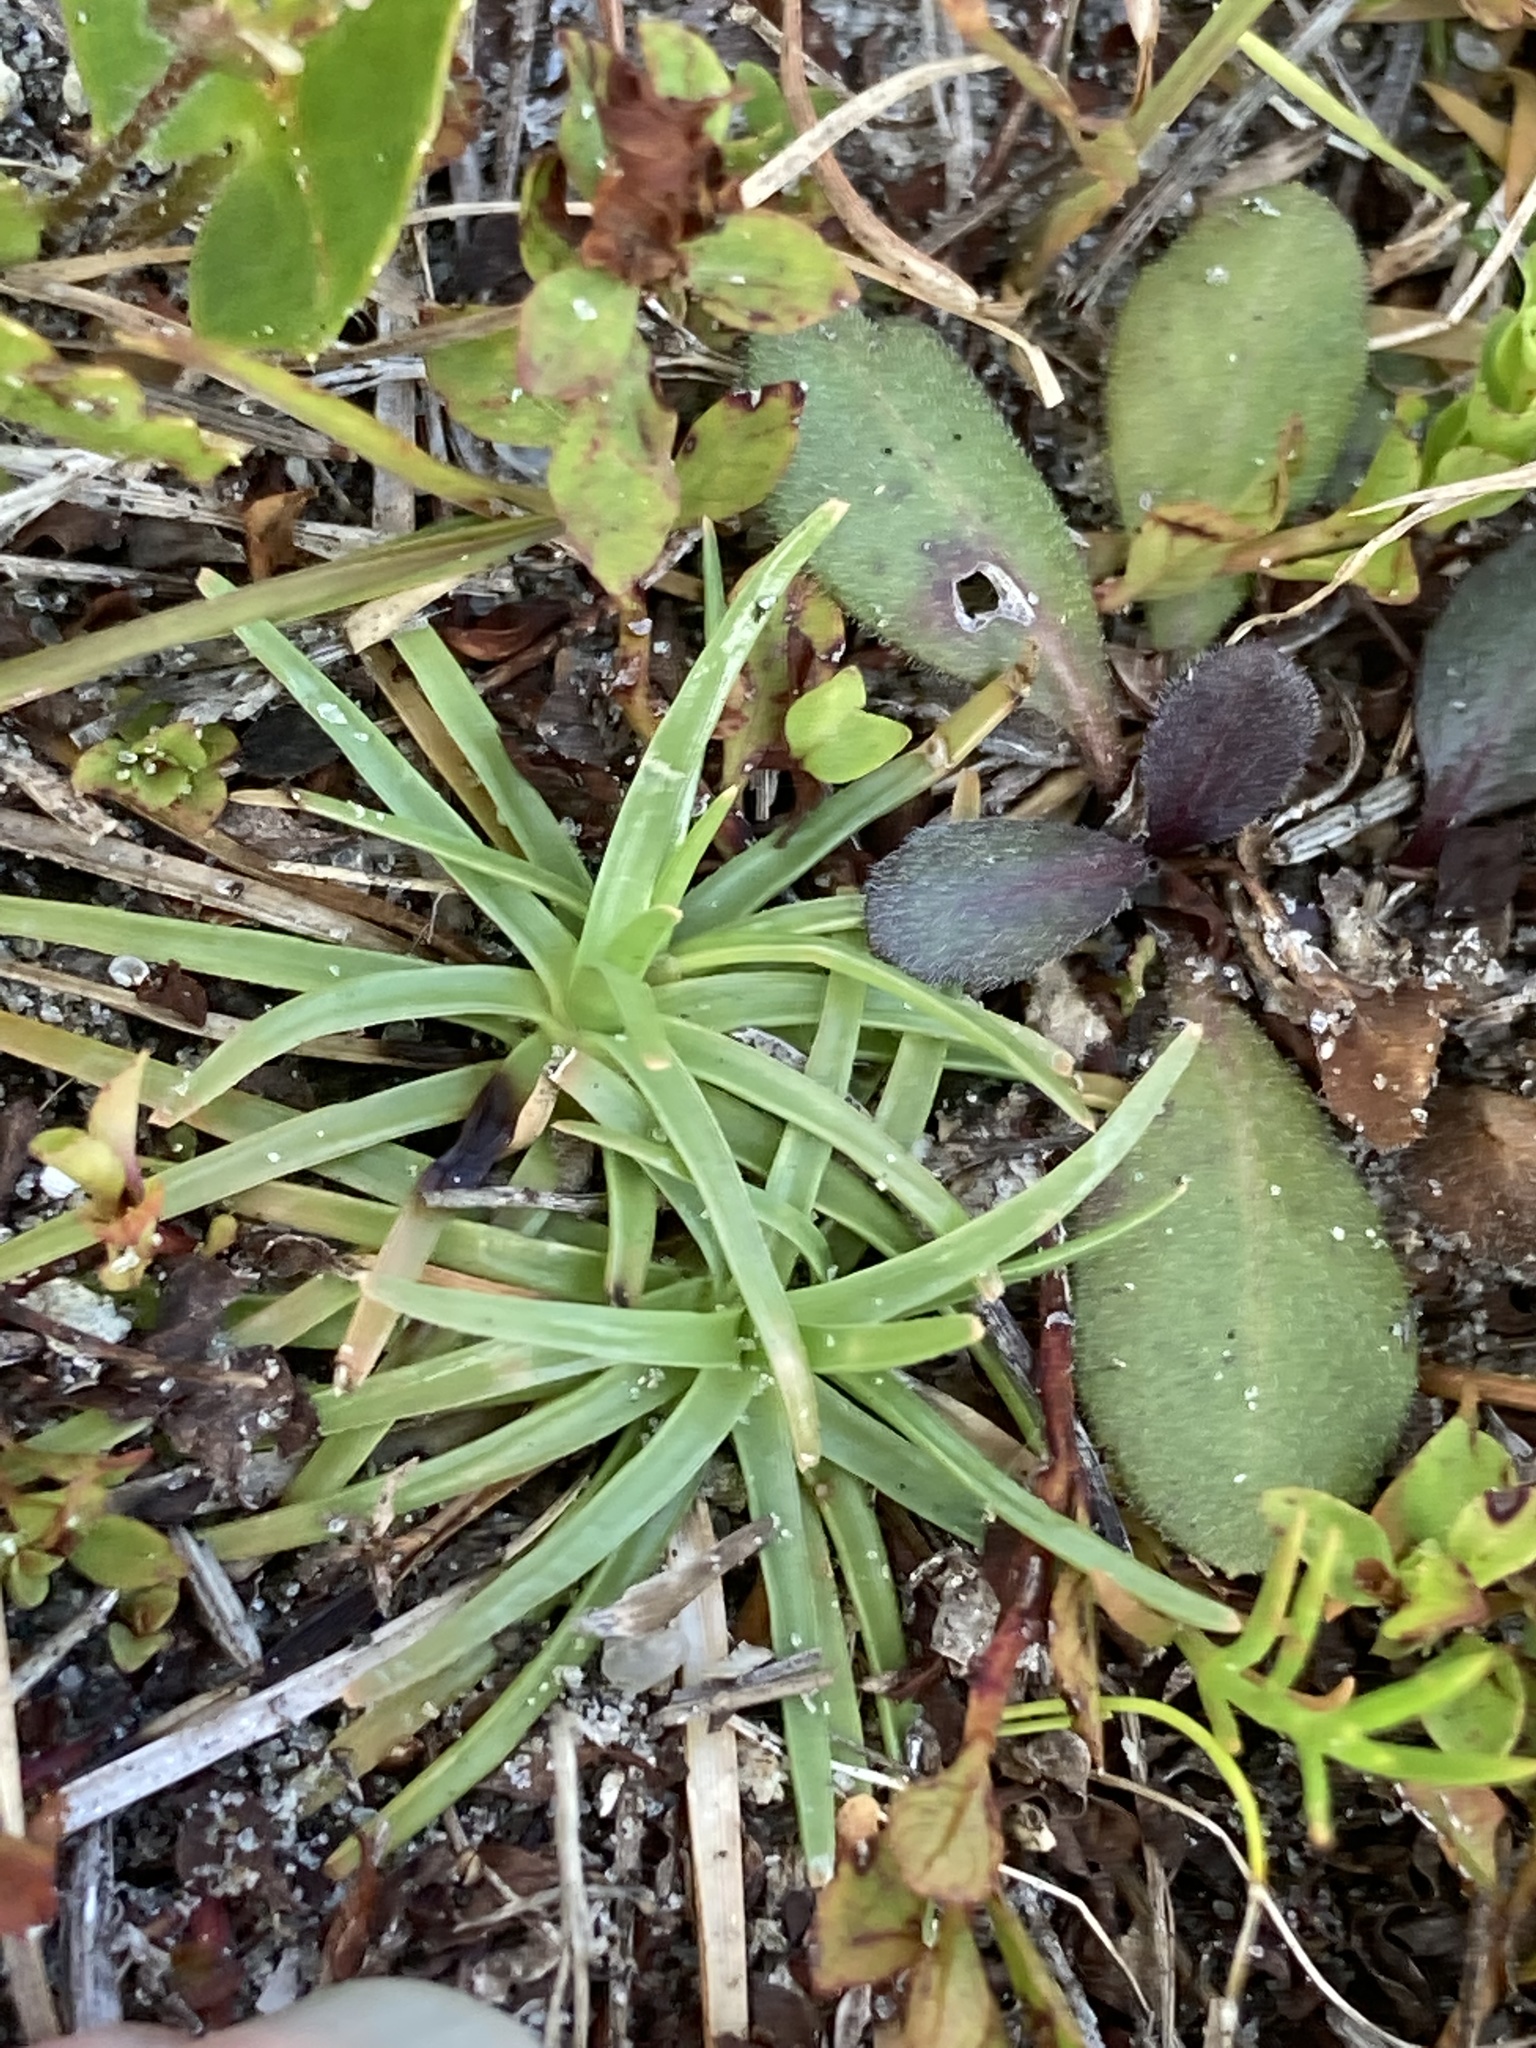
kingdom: Plantae
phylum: Tracheophyta
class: Liliopsida
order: Poales
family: Cyperaceae
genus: Fimbristylis
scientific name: Fimbristylis cymosa
